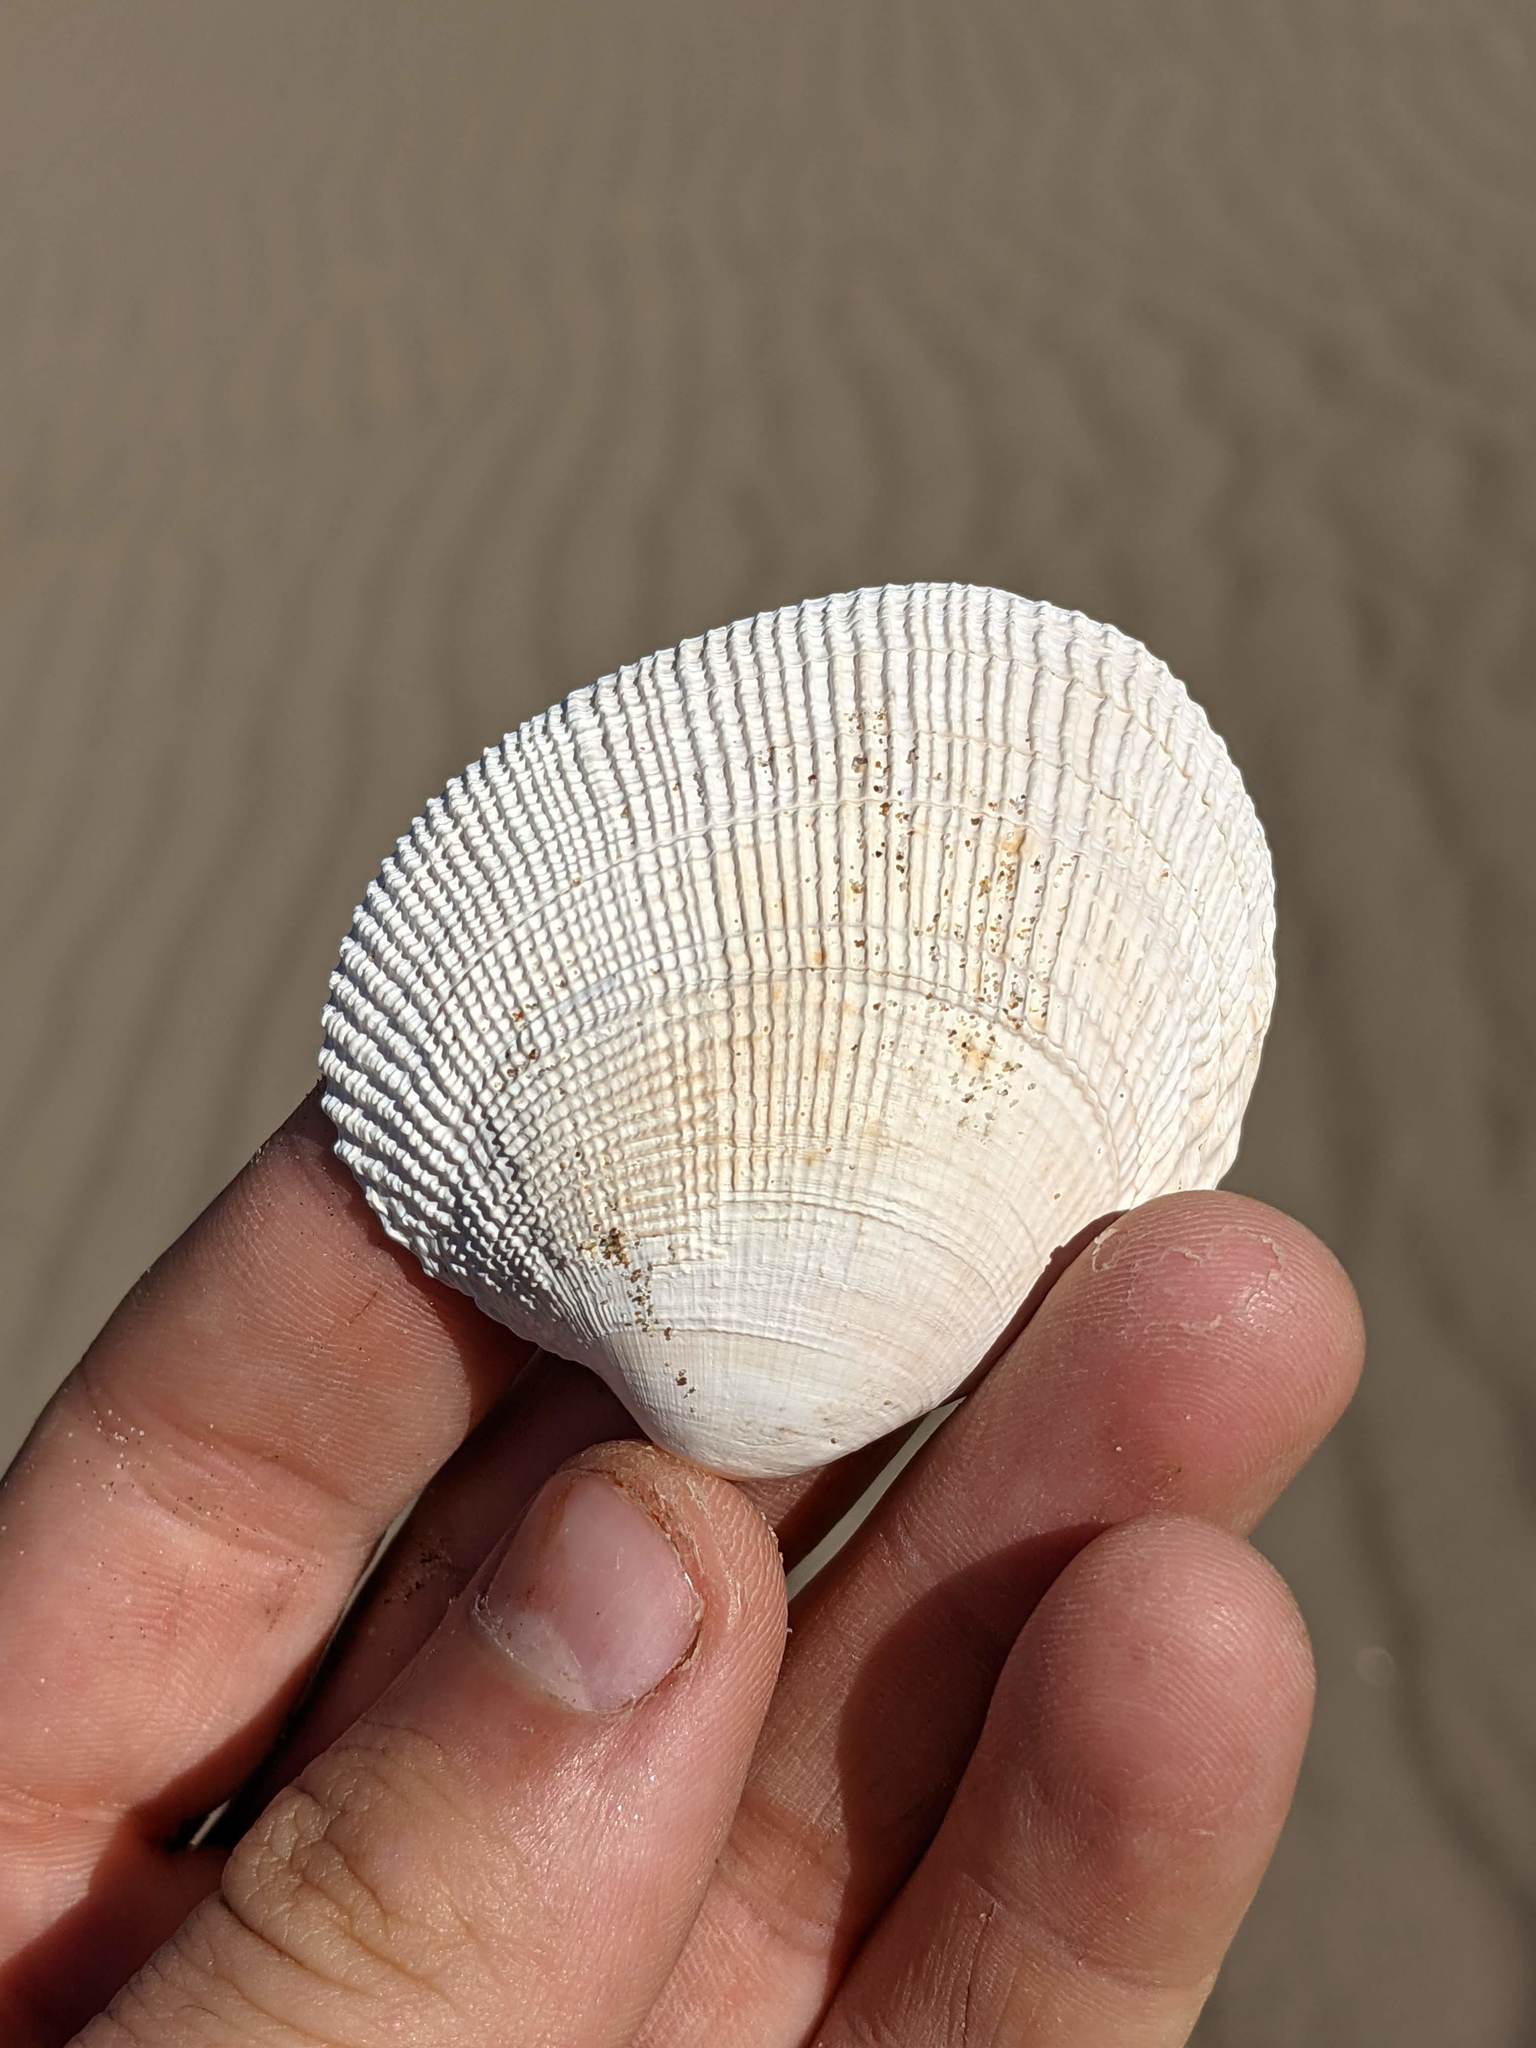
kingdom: Animalia
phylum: Mollusca
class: Bivalvia
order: Venerida
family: Veneridae
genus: Leukoma
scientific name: Leukoma staminea
